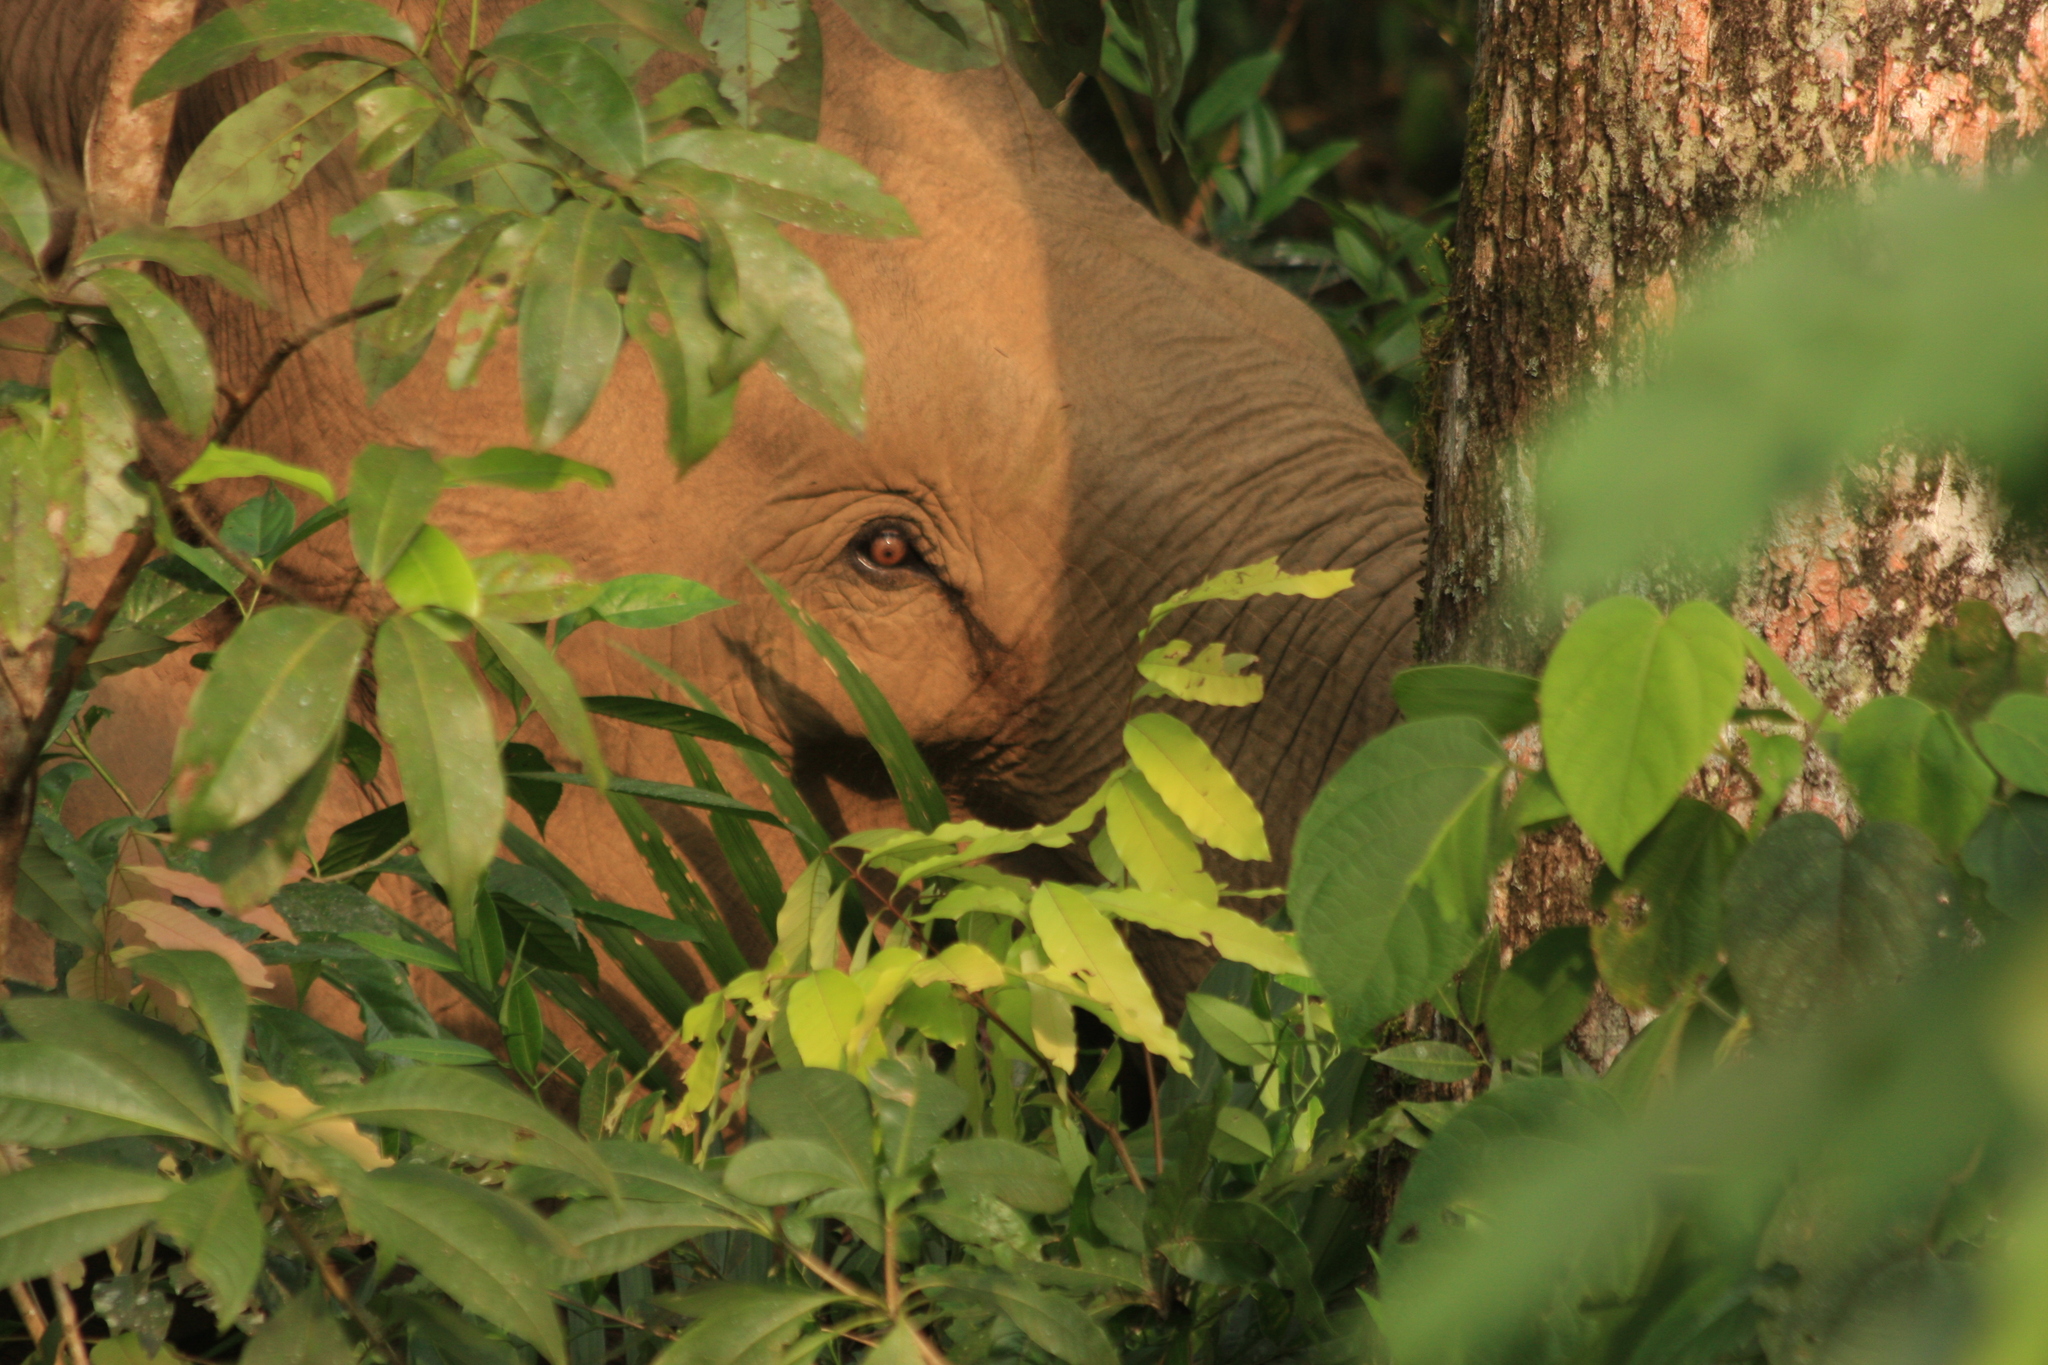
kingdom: Animalia
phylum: Chordata
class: Mammalia
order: Proboscidea
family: Elephantidae
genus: Elephas
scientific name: Elephas maximus
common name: Asian elephant
